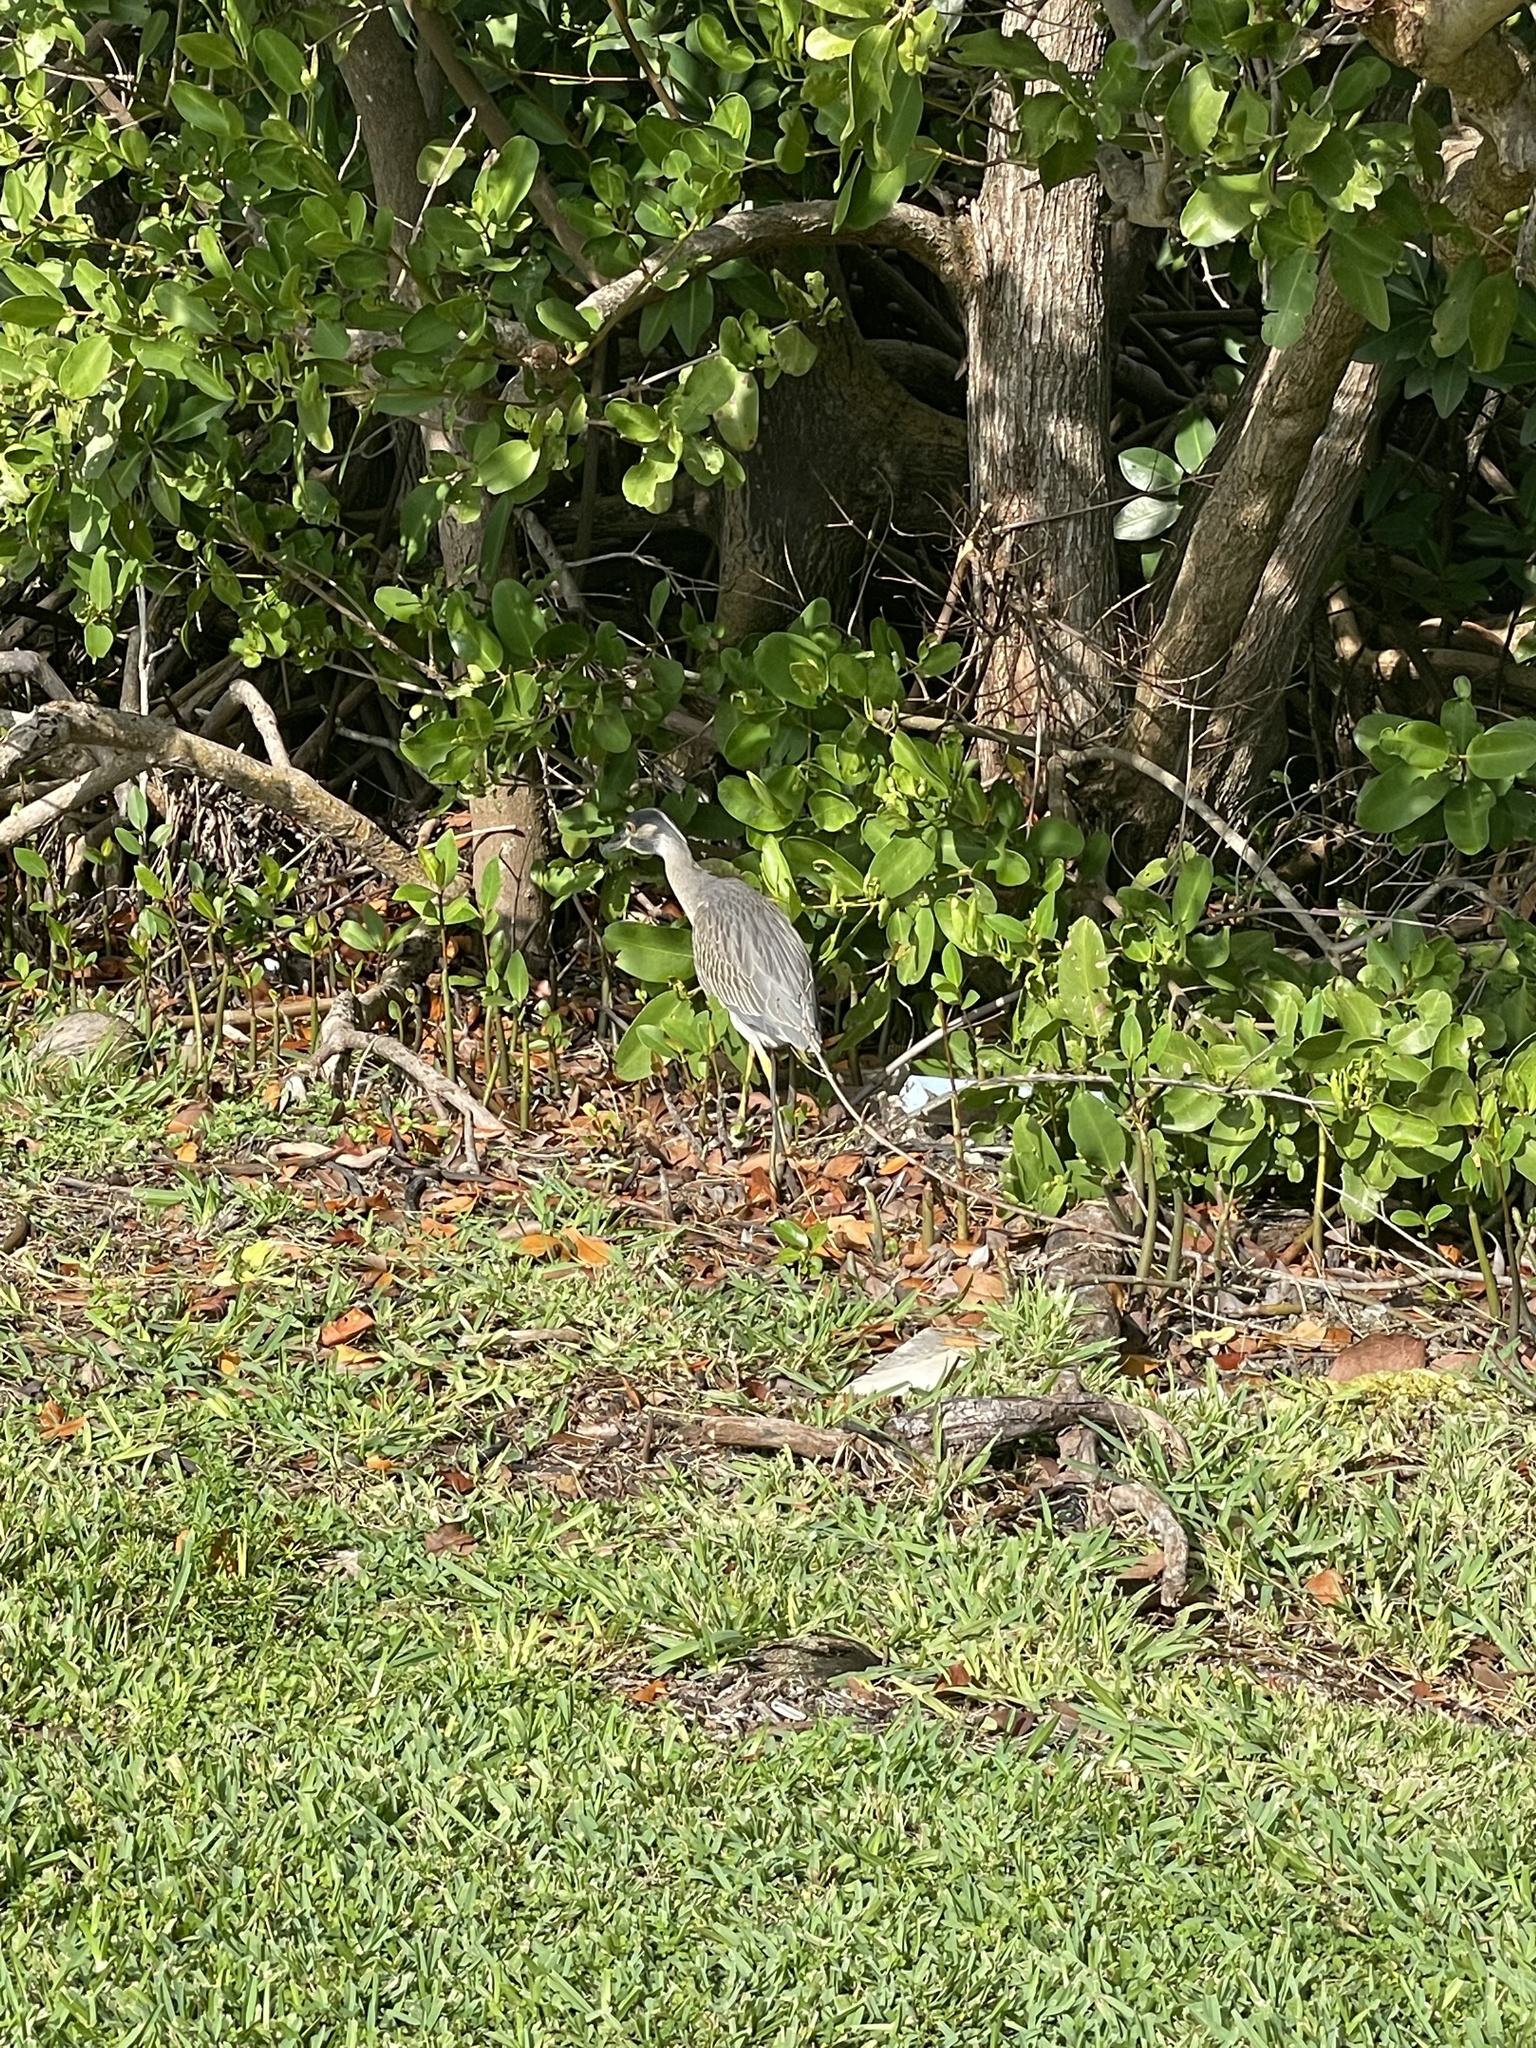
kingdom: Animalia
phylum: Chordata
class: Aves
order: Pelecaniformes
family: Ardeidae
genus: Nyctanassa
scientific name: Nyctanassa violacea
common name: Yellow-crowned night heron
